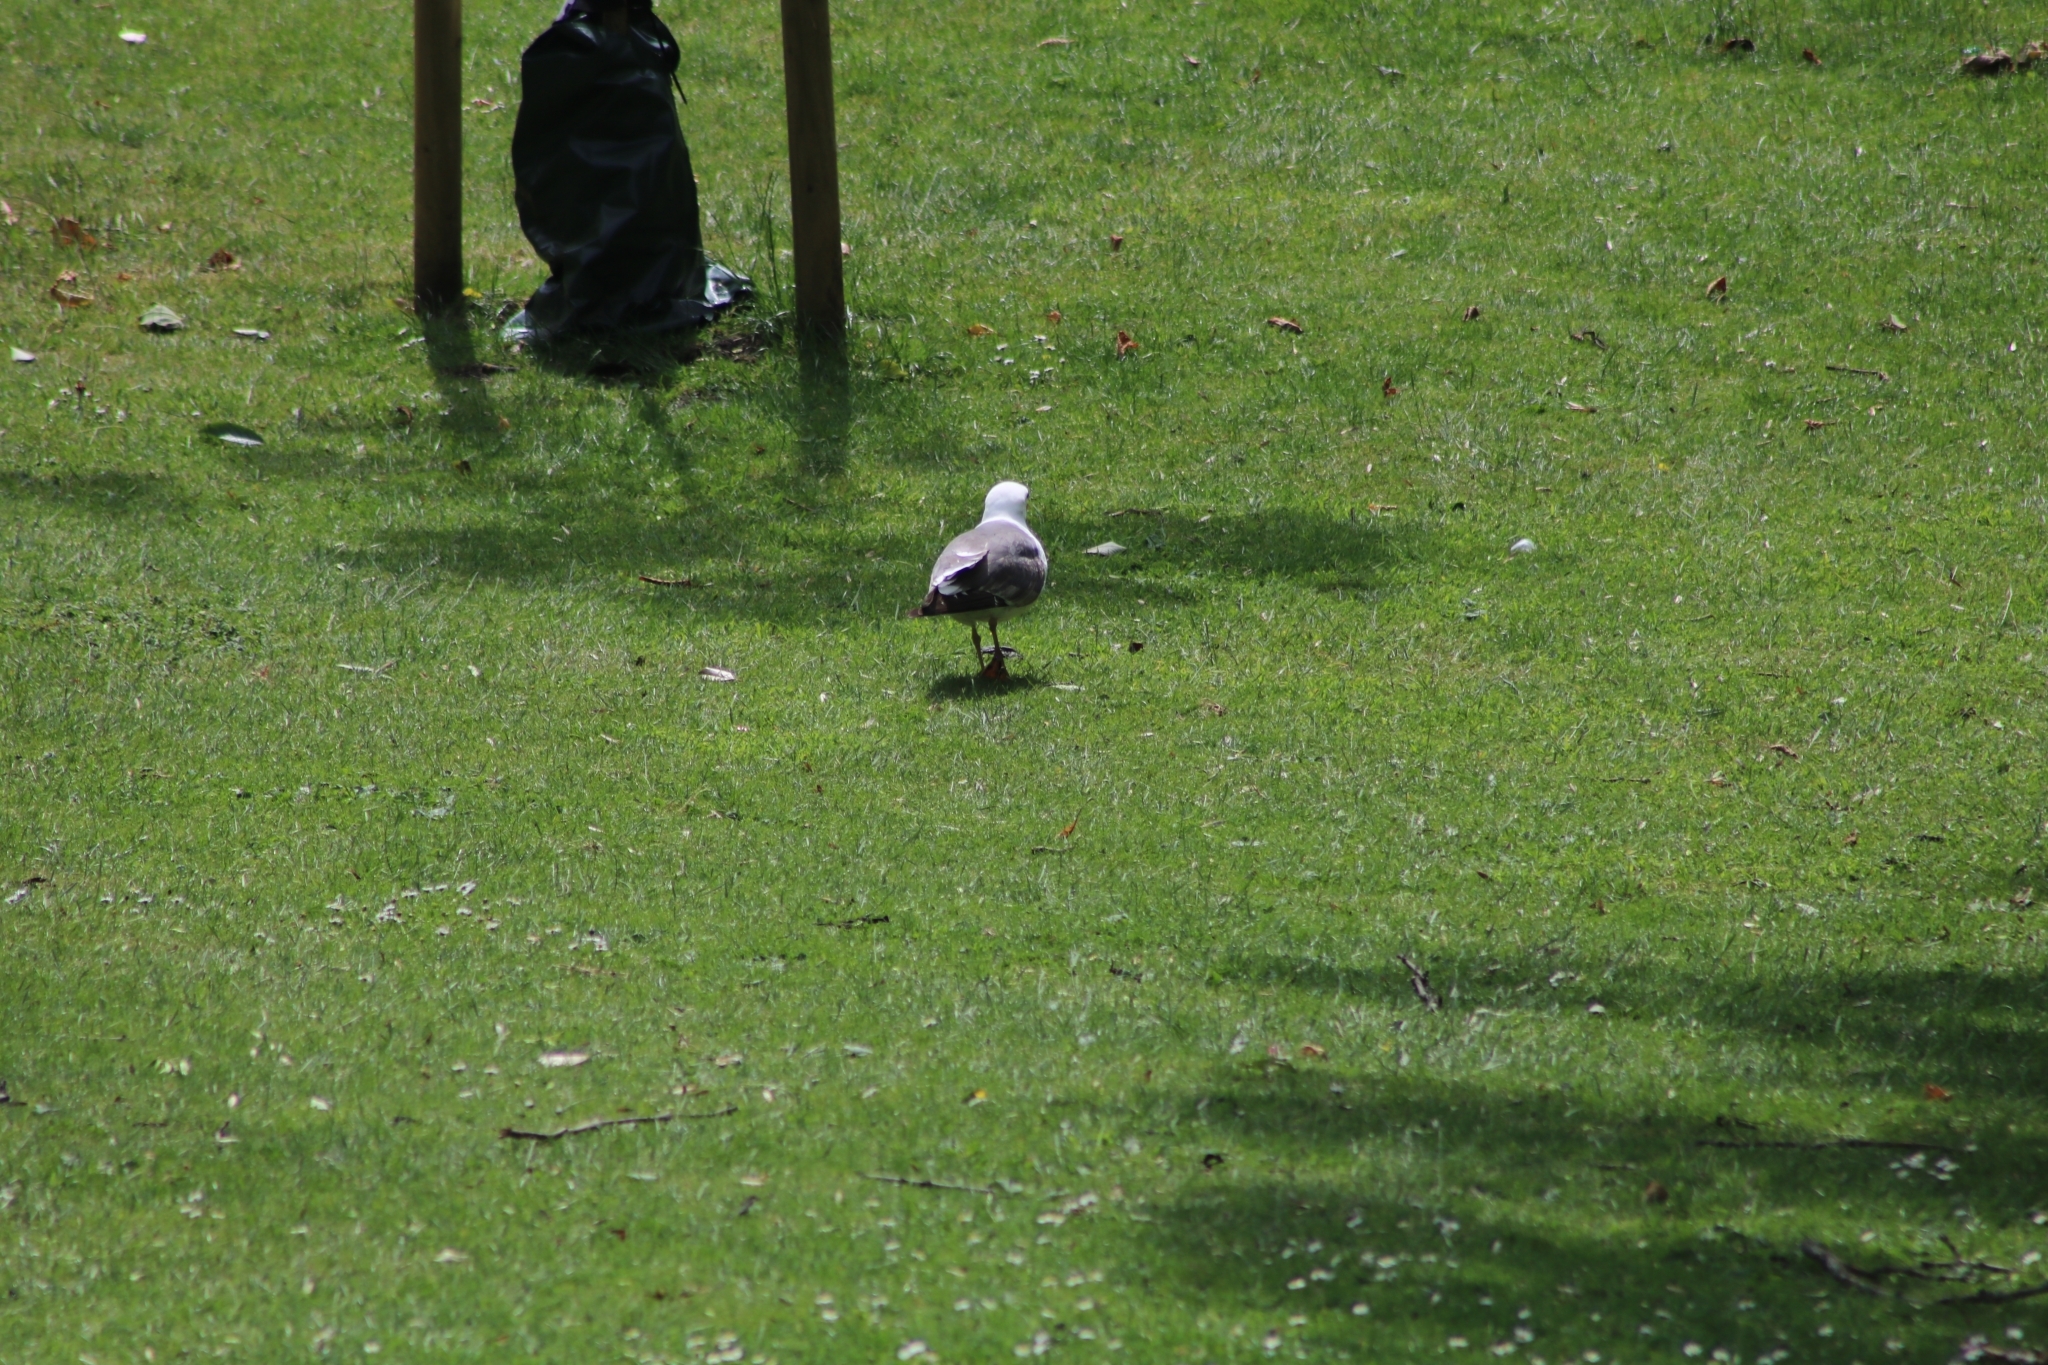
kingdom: Animalia
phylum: Chordata
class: Aves
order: Charadriiformes
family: Laridae
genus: Larus
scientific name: Larus fuscus
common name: Lesser black-backed gull
